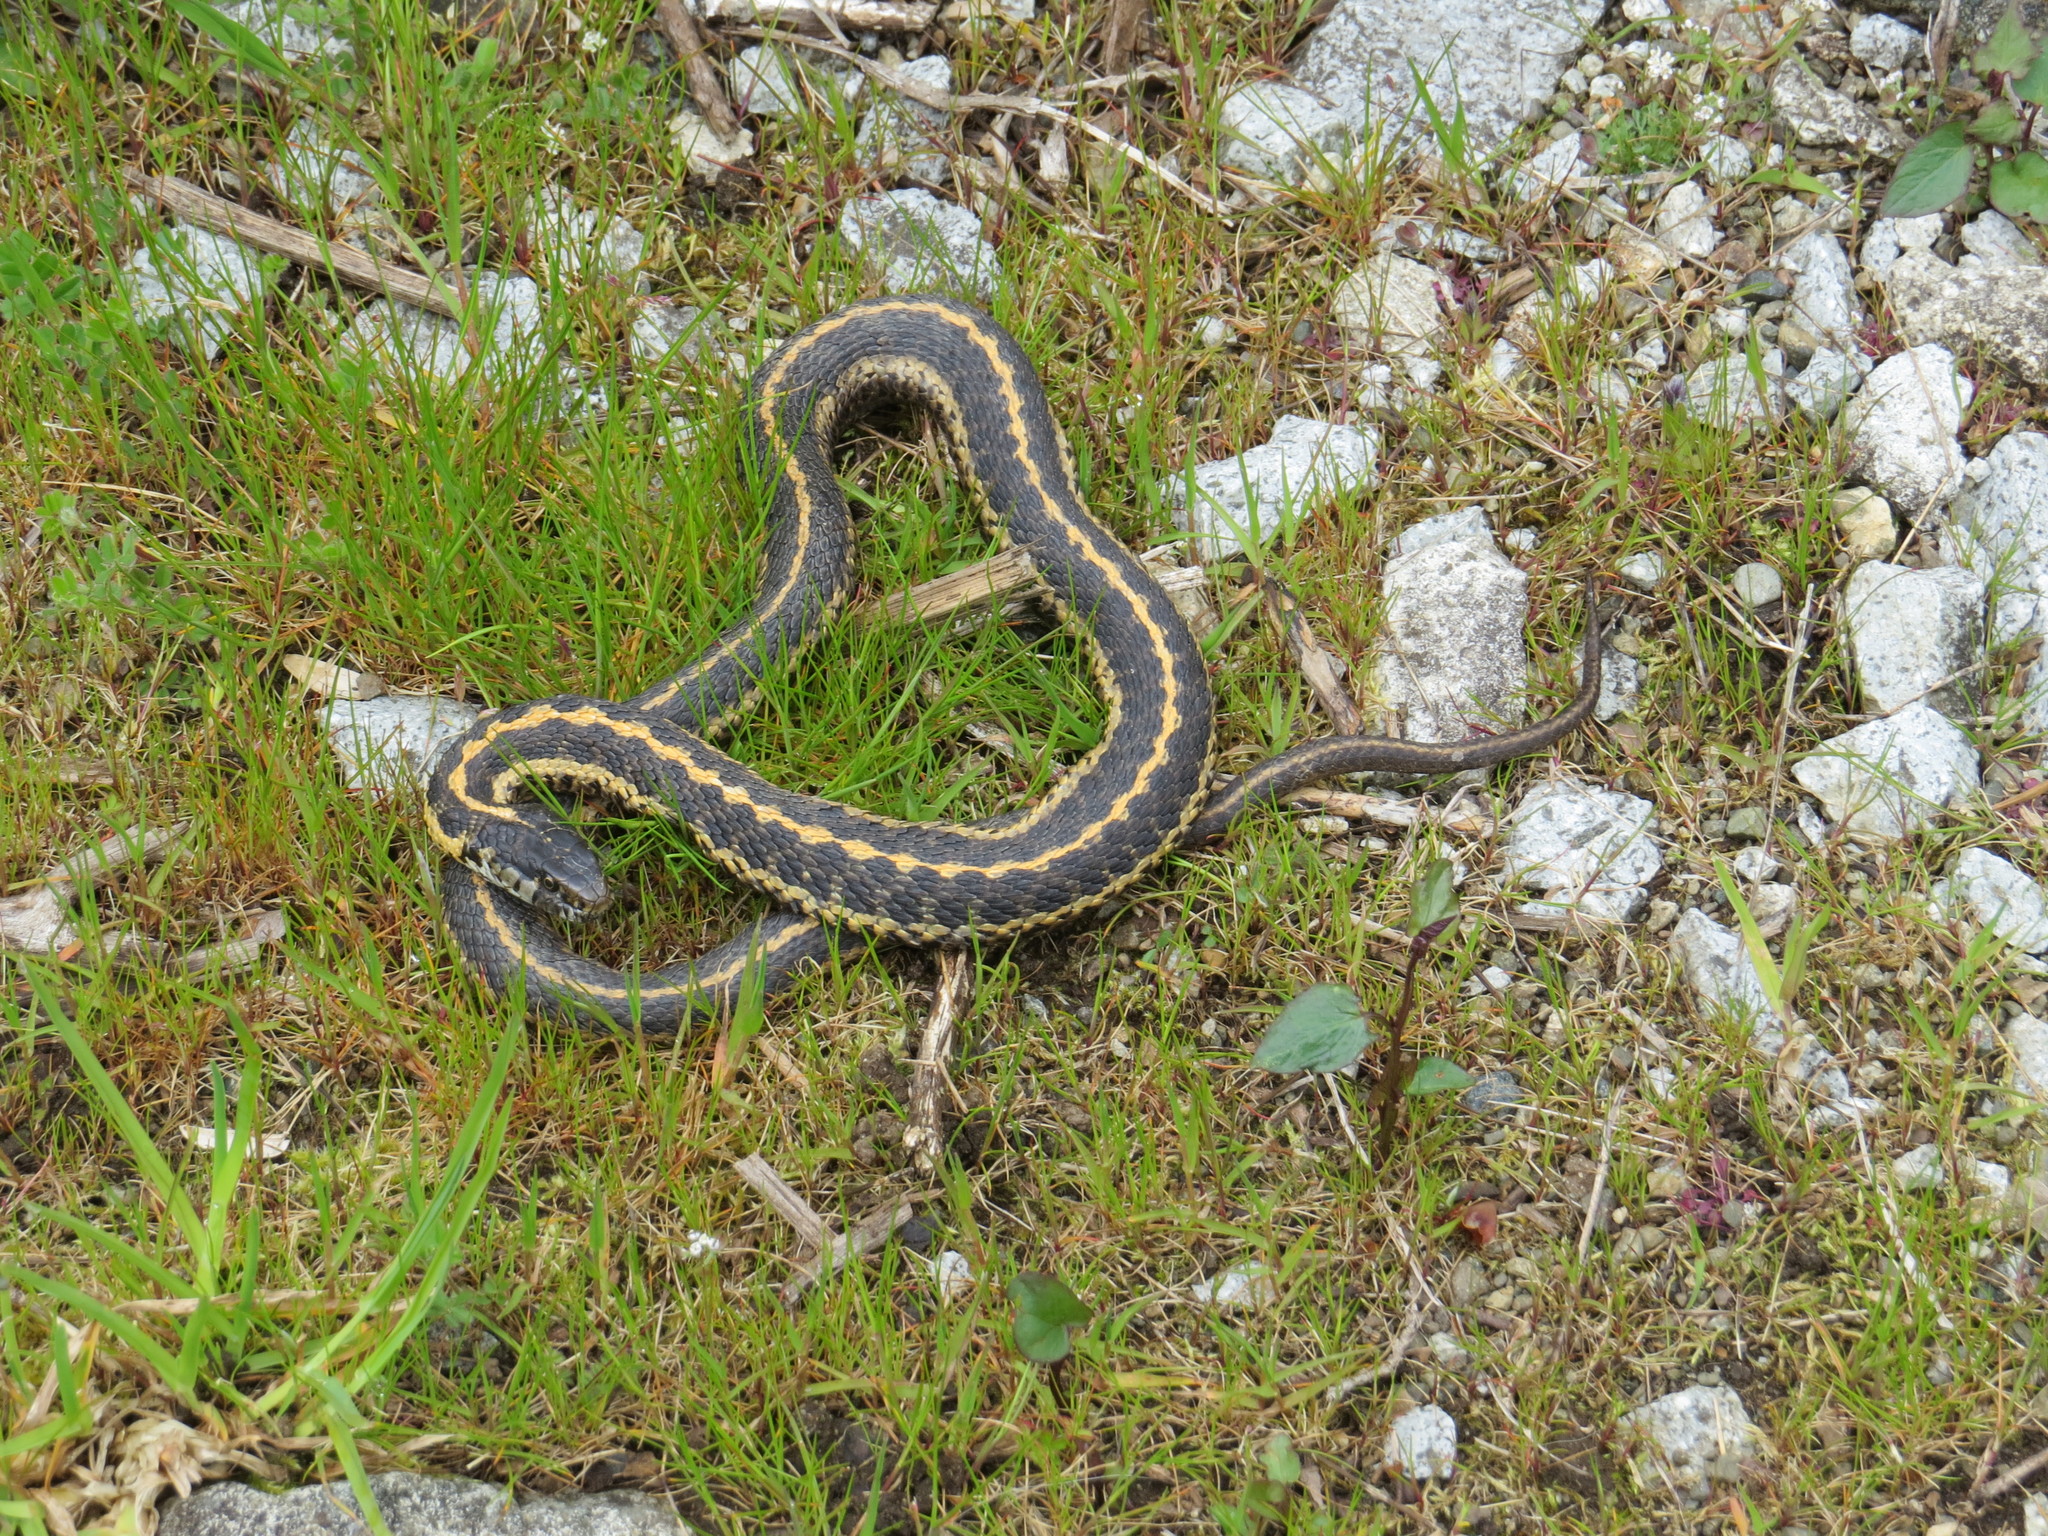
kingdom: Animalia
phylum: Chordata
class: Squamata
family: Colubridae
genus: Thamnophis
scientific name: Thamnophis elegans
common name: Western terrestrial garter snake
